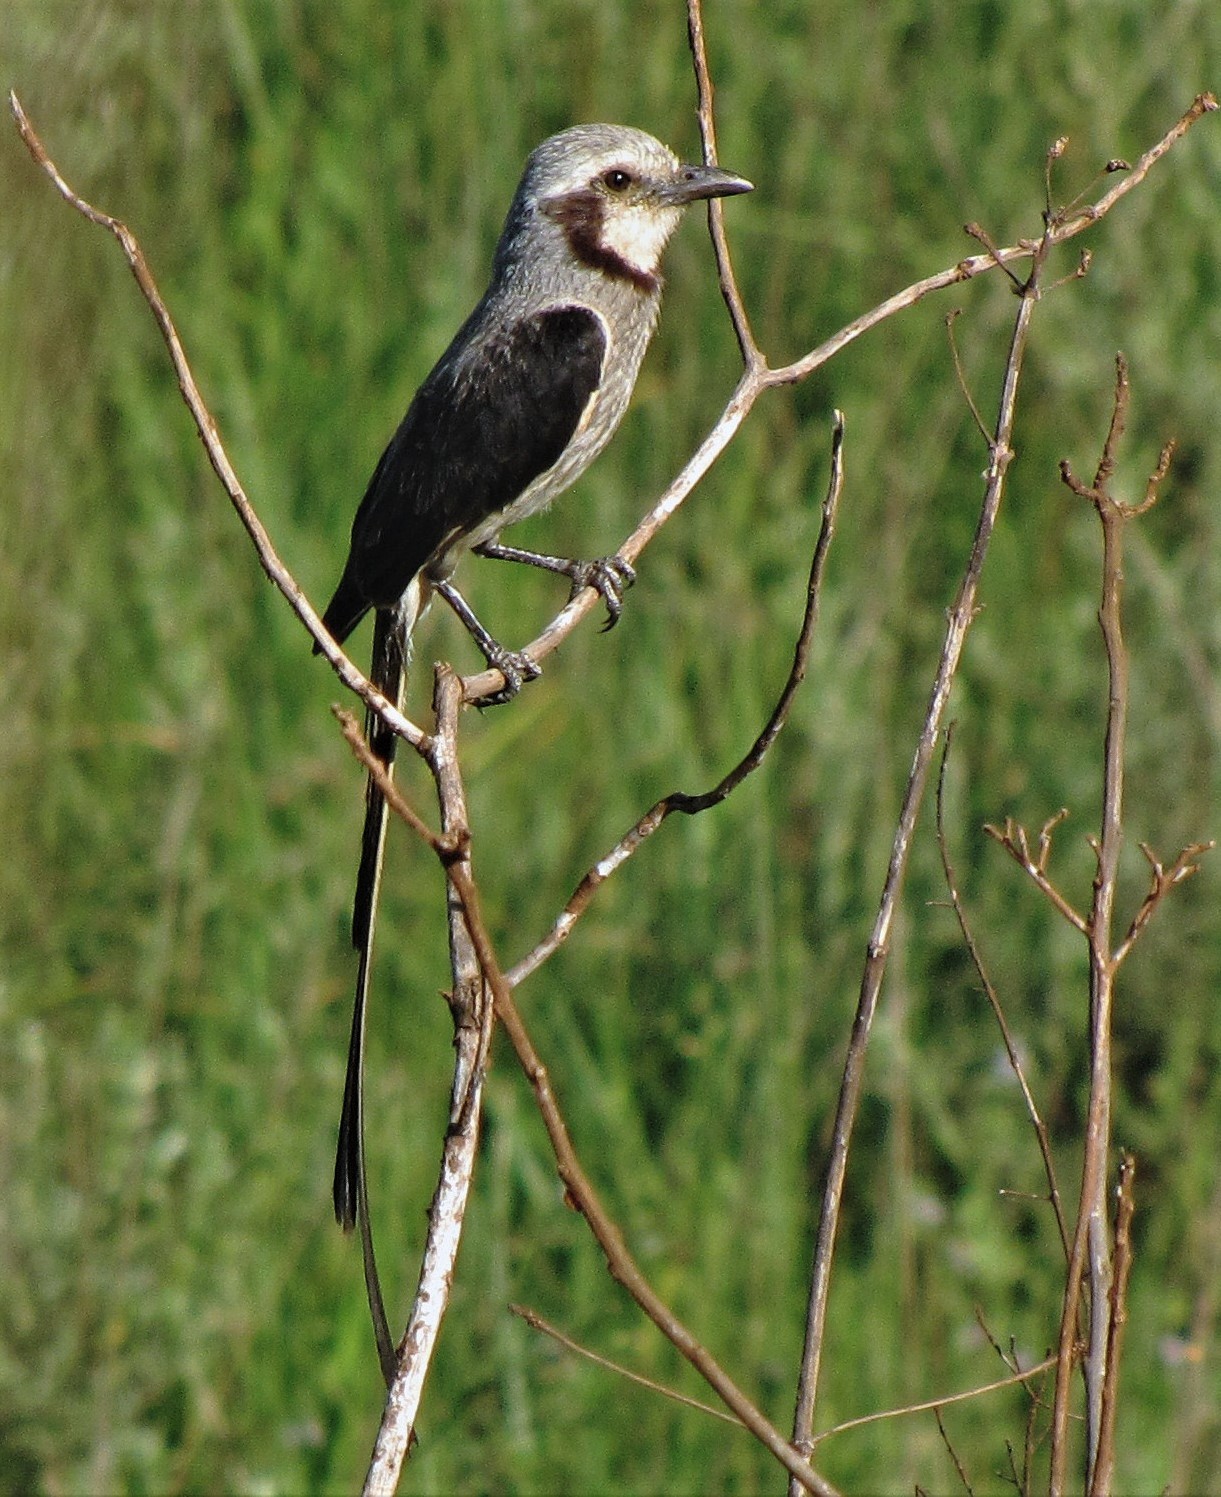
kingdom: Animalia
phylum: Chordata
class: Aves
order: Passeriformes
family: Tyrannidae
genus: Gubernetes
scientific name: Gubernetes yetapa
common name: Streamer-tailed tyrant
